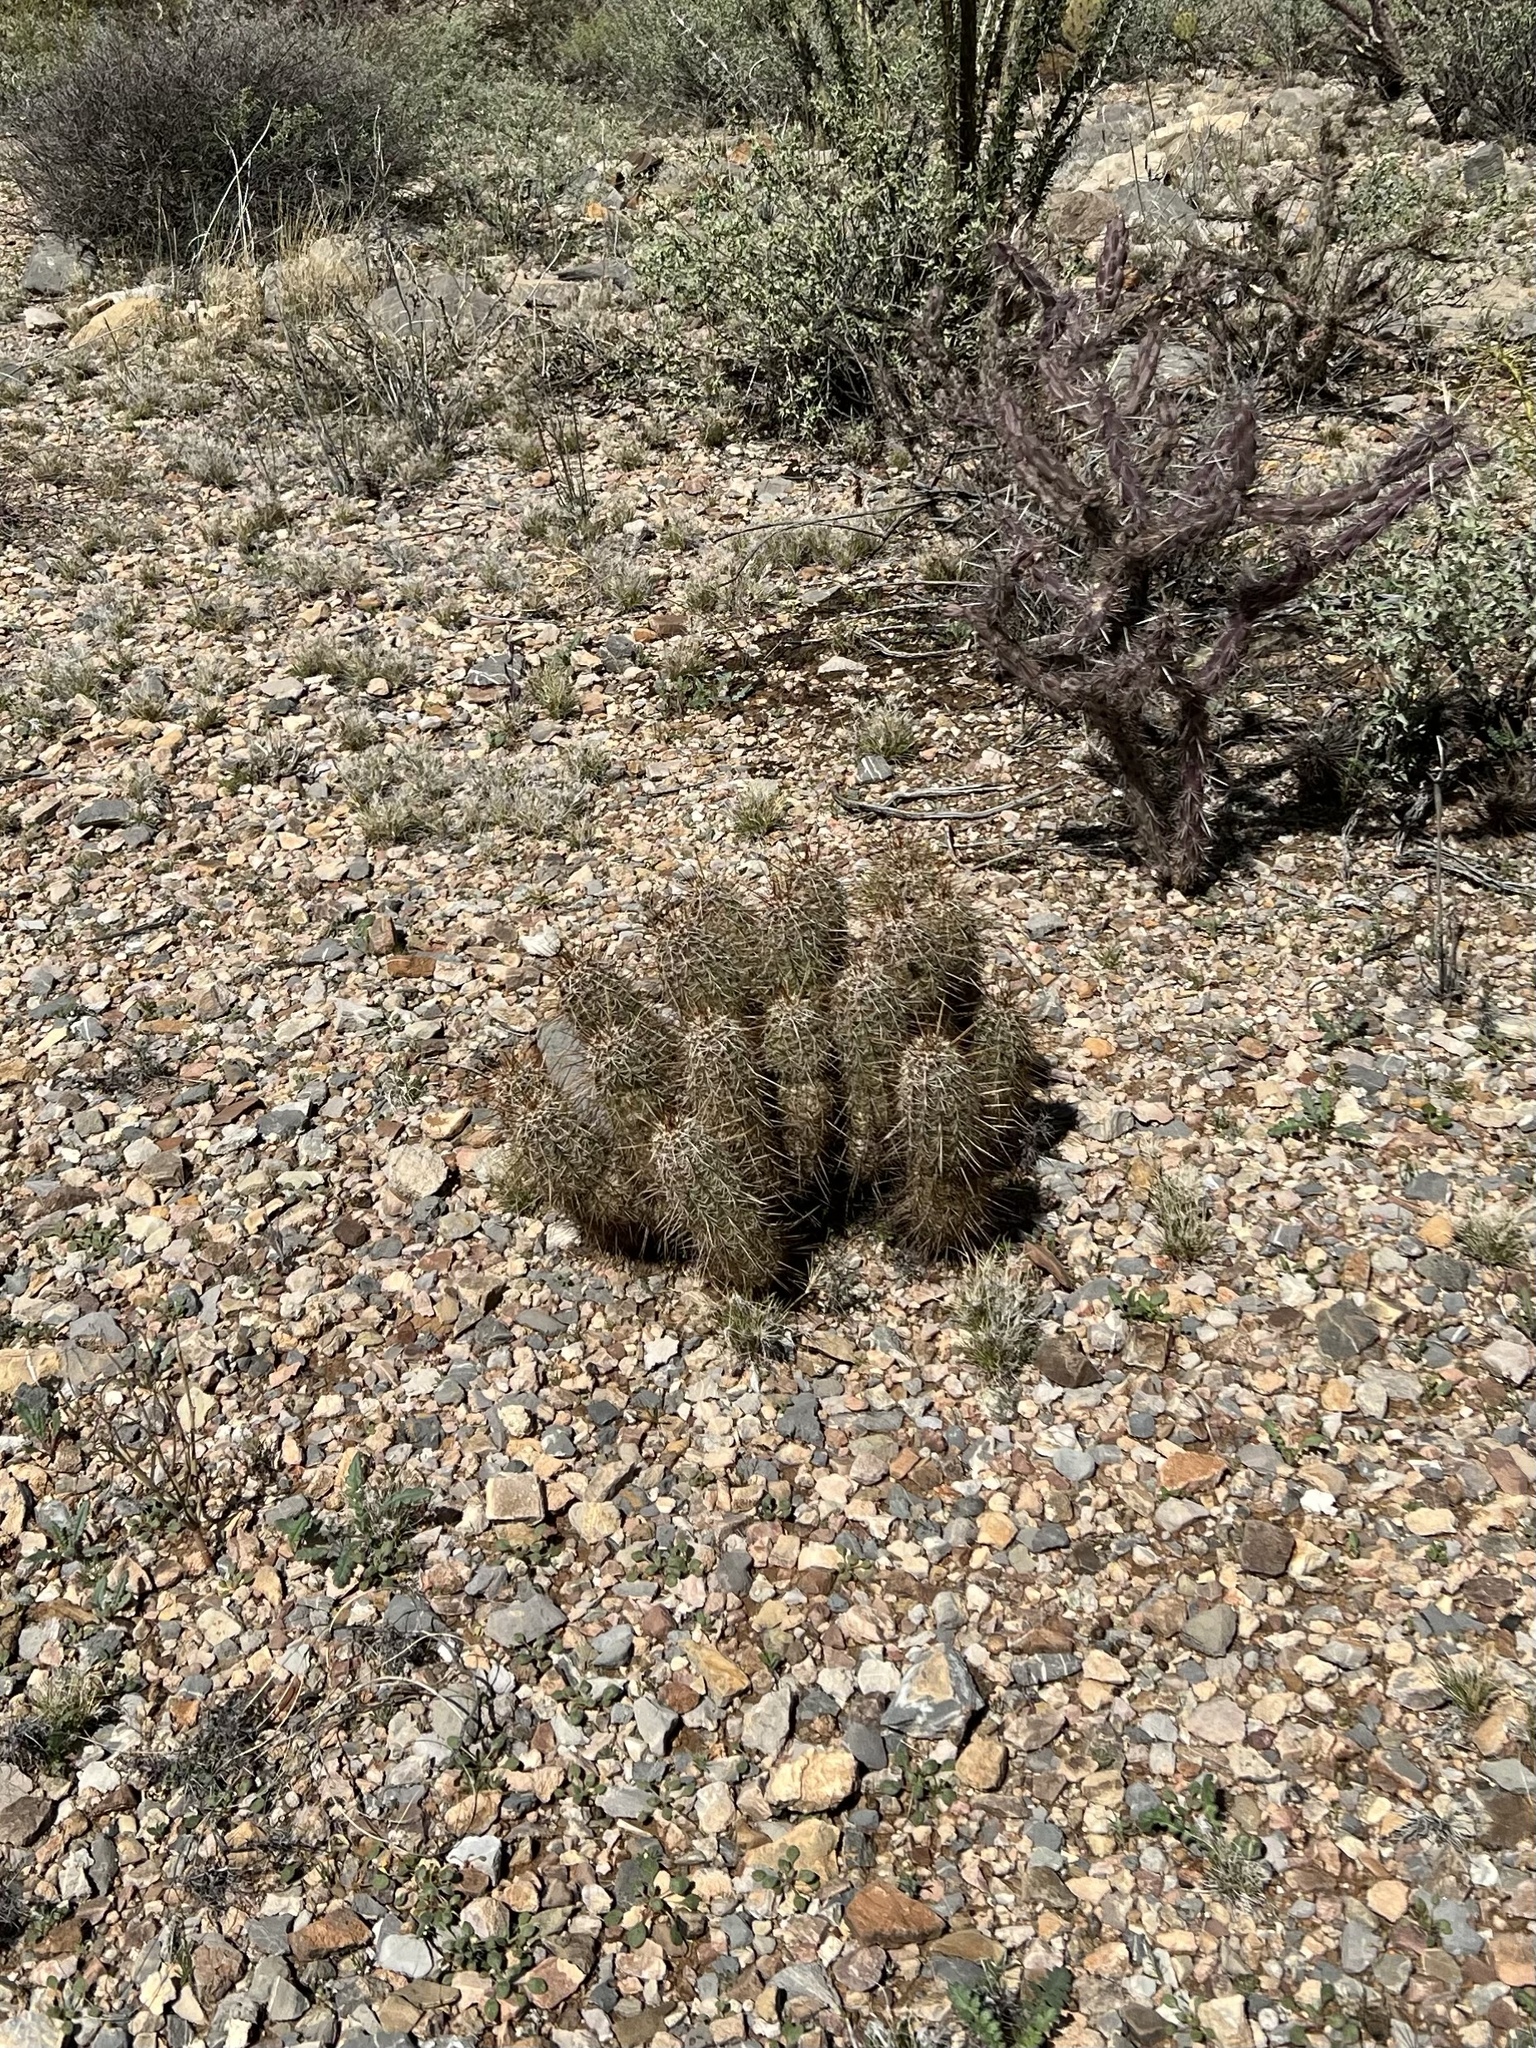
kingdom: Plantae
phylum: Tracheophyta
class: Magnoliopsida
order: Caryophyllales
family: Cactaceae
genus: Echinocereus
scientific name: Echinocereus fasciculatus
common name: Bundle hedgehog
